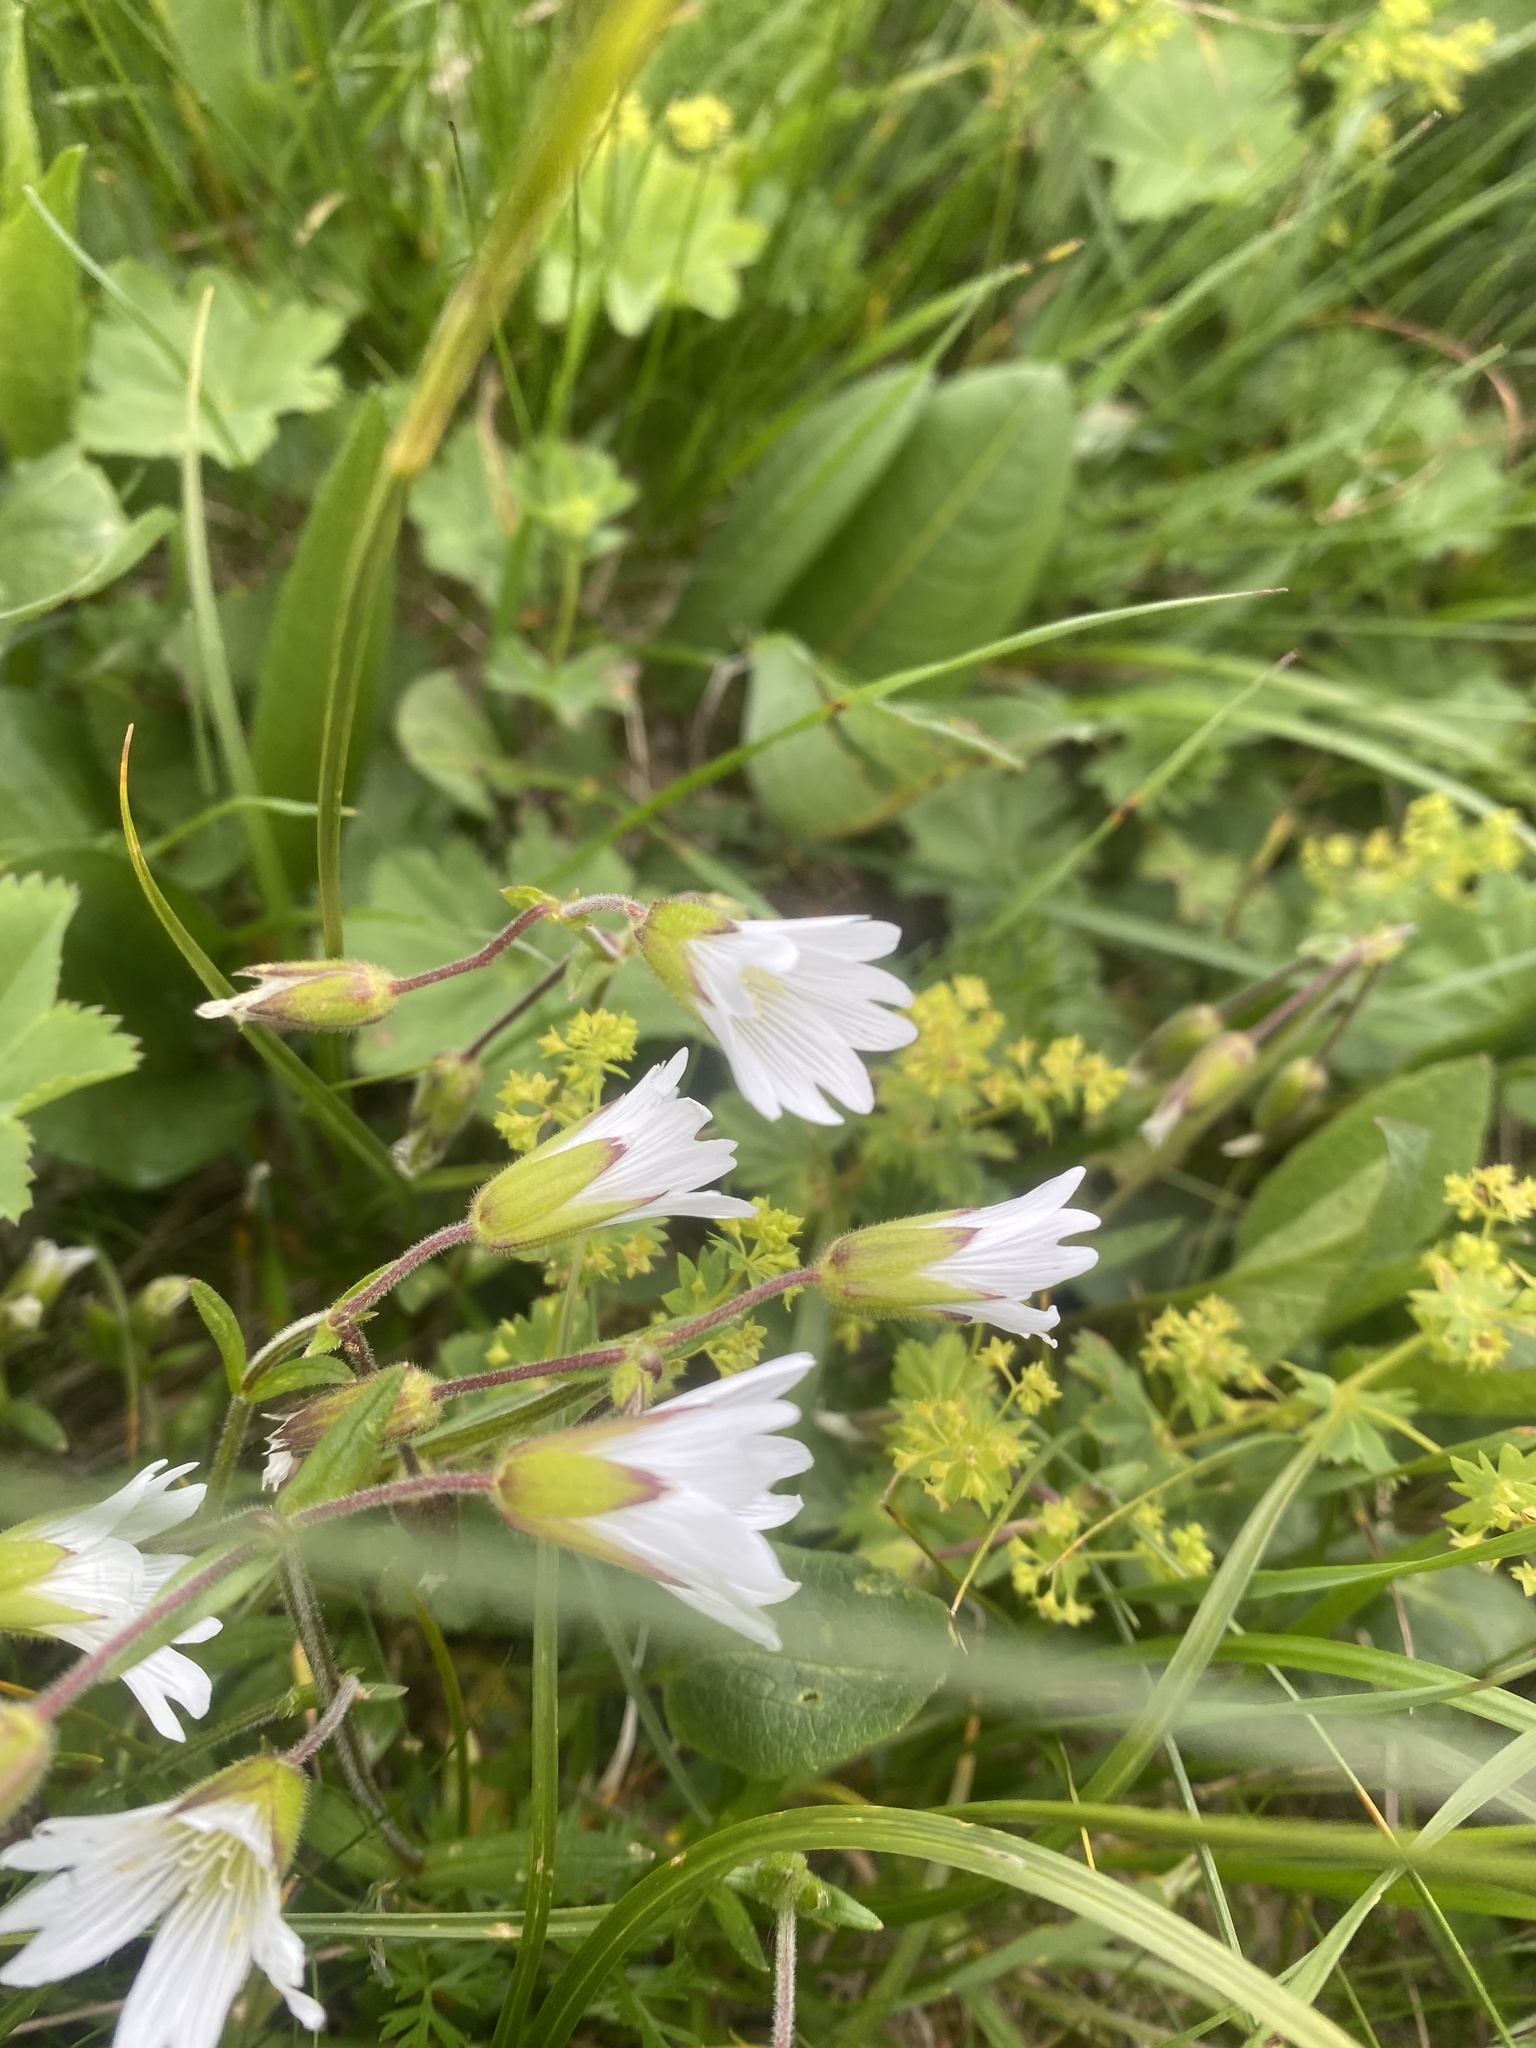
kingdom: Plantae
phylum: Tracheophyta
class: Magnoliopsida
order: Caryophyllales
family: Caryophyllaceae
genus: Dichodon
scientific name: Dichodon cerastoides
